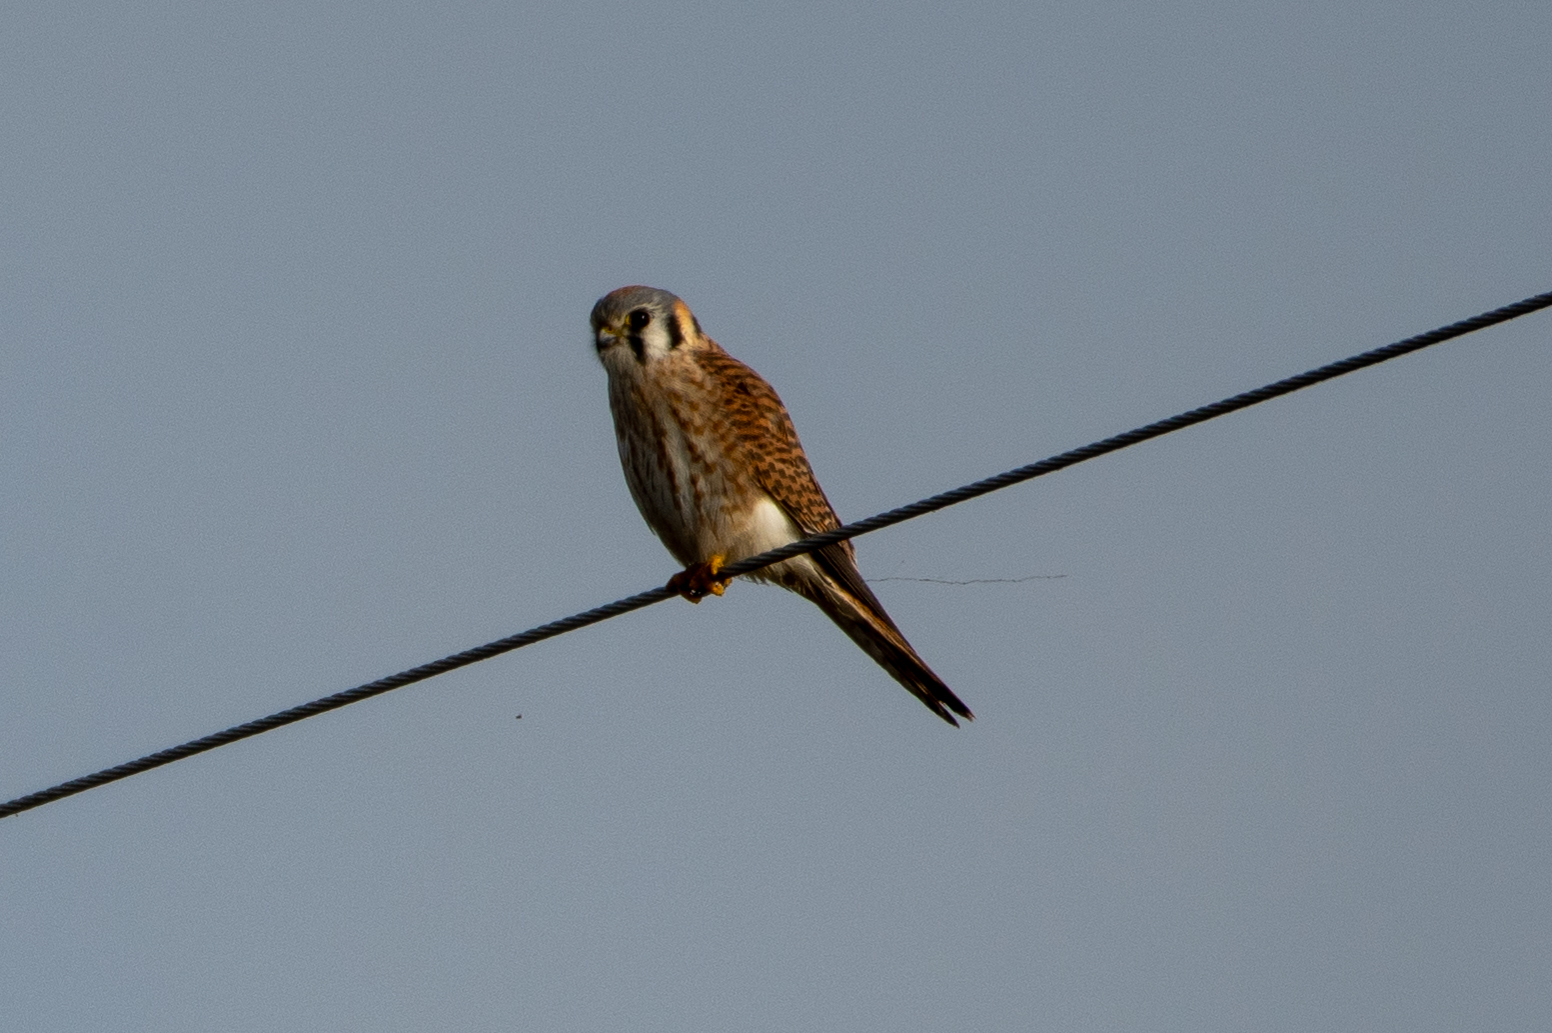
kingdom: Animalia
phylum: Chordata
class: Aves
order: Falconiformes
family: Falconidae
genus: Falco
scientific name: Falco sparverius
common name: American kestrel
